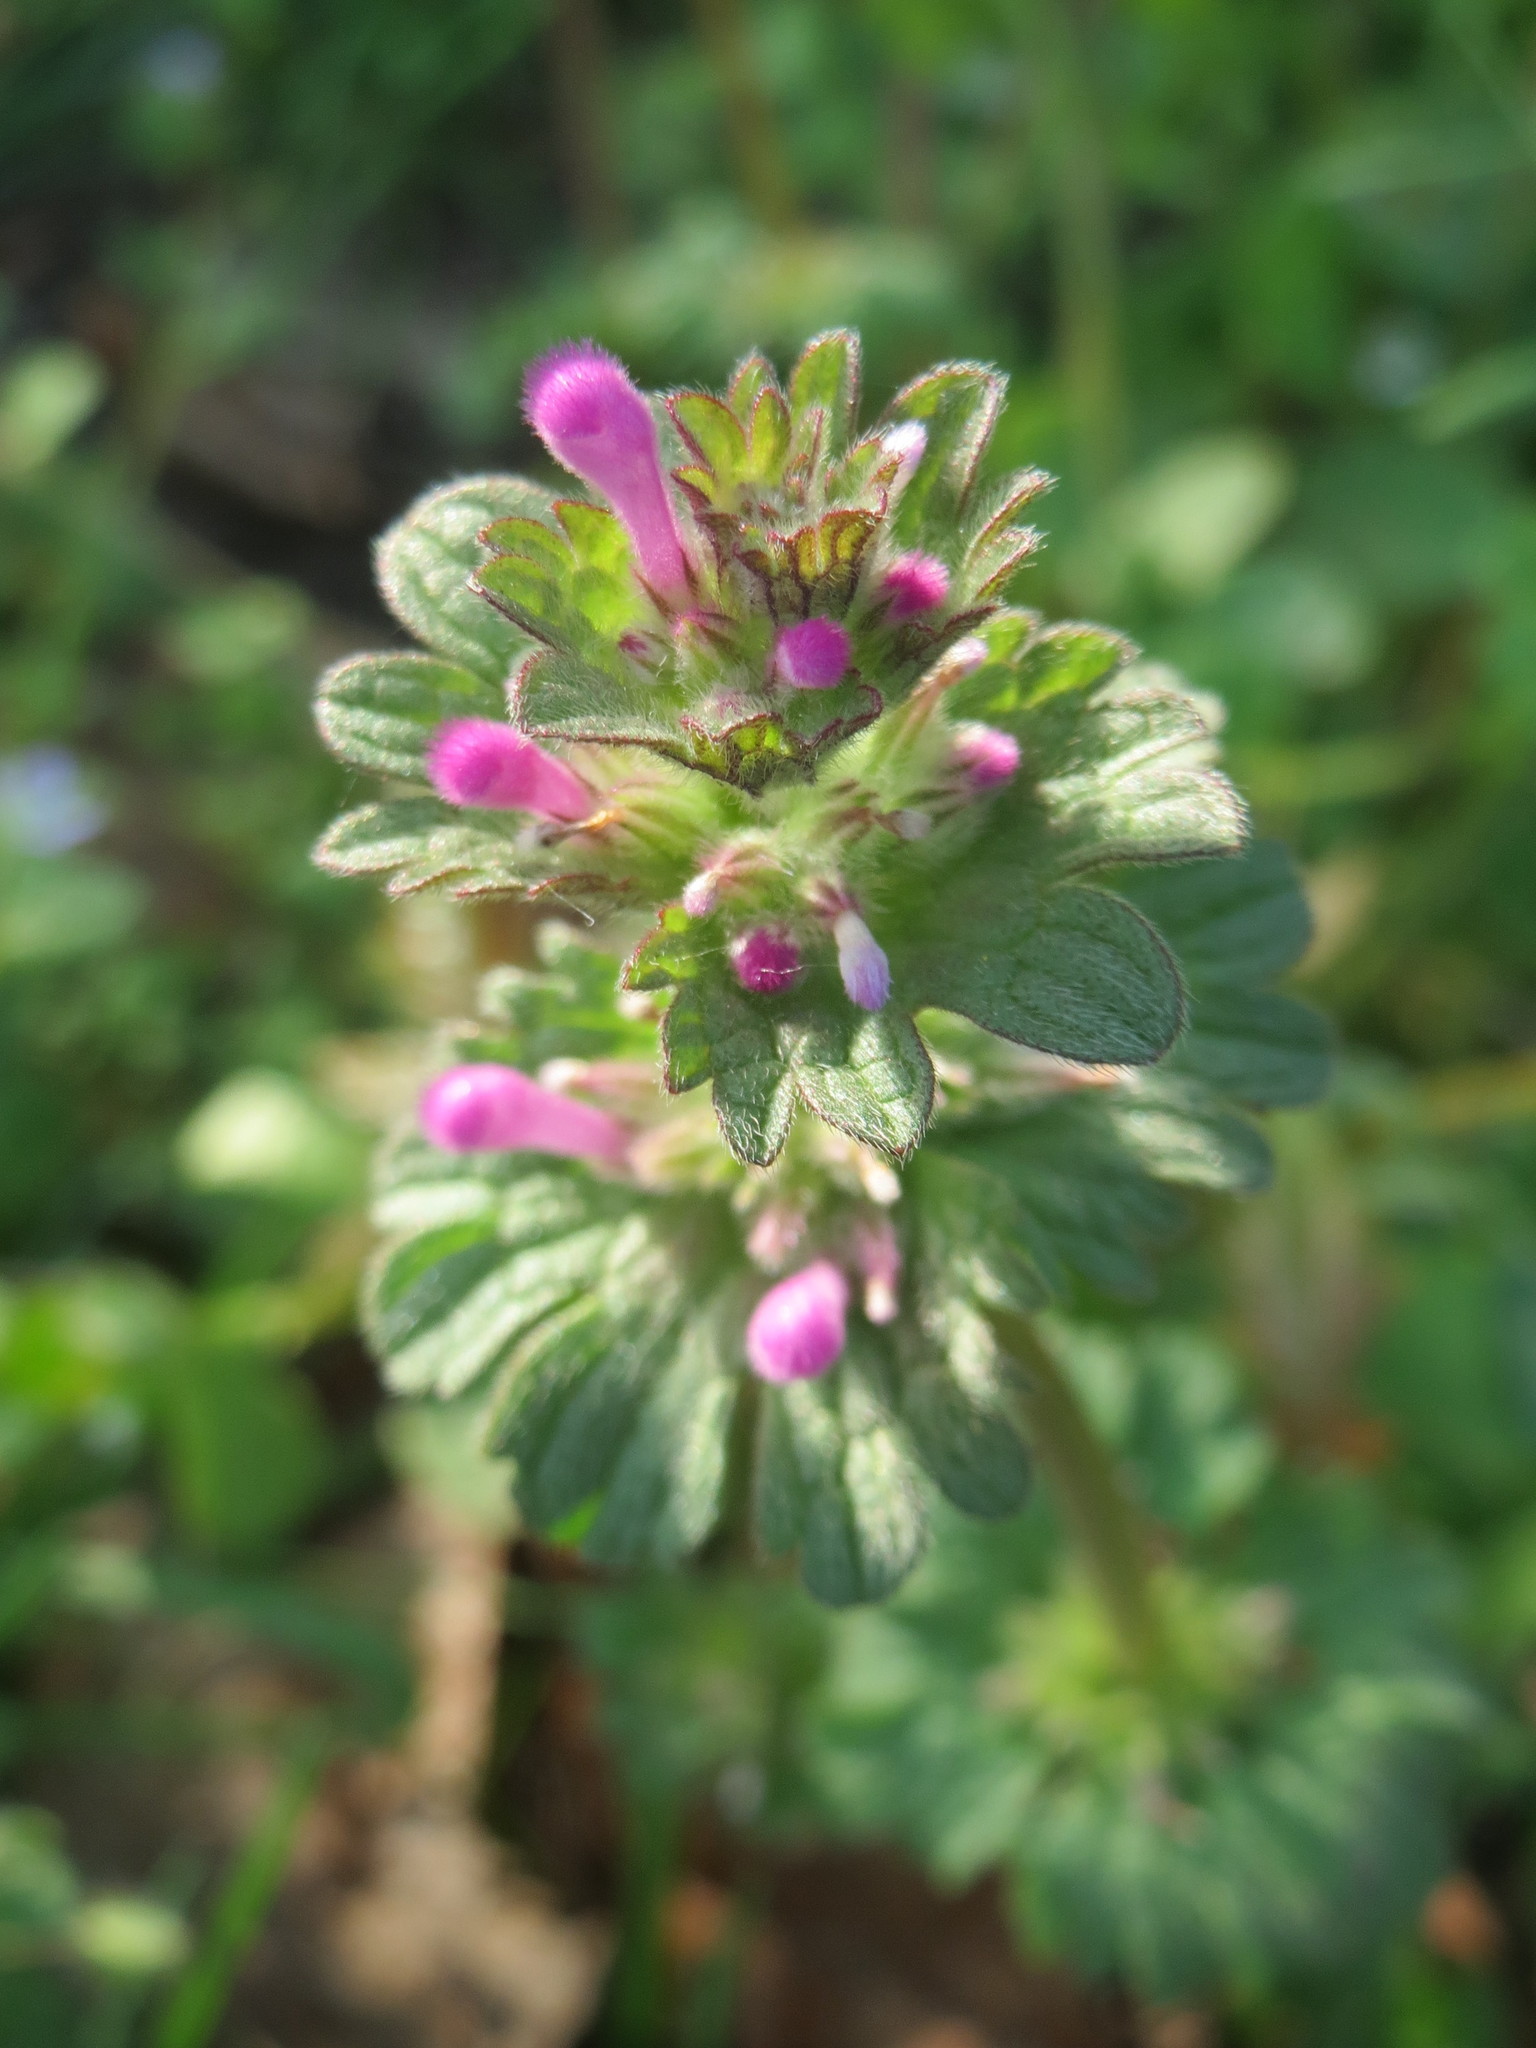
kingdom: Plantae
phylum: Tracheophyta
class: Magnoliopsida
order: Lamiales
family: Lamiaceae
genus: Lamium
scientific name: Lamium amplexicaule
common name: Henbit dead-nettle
